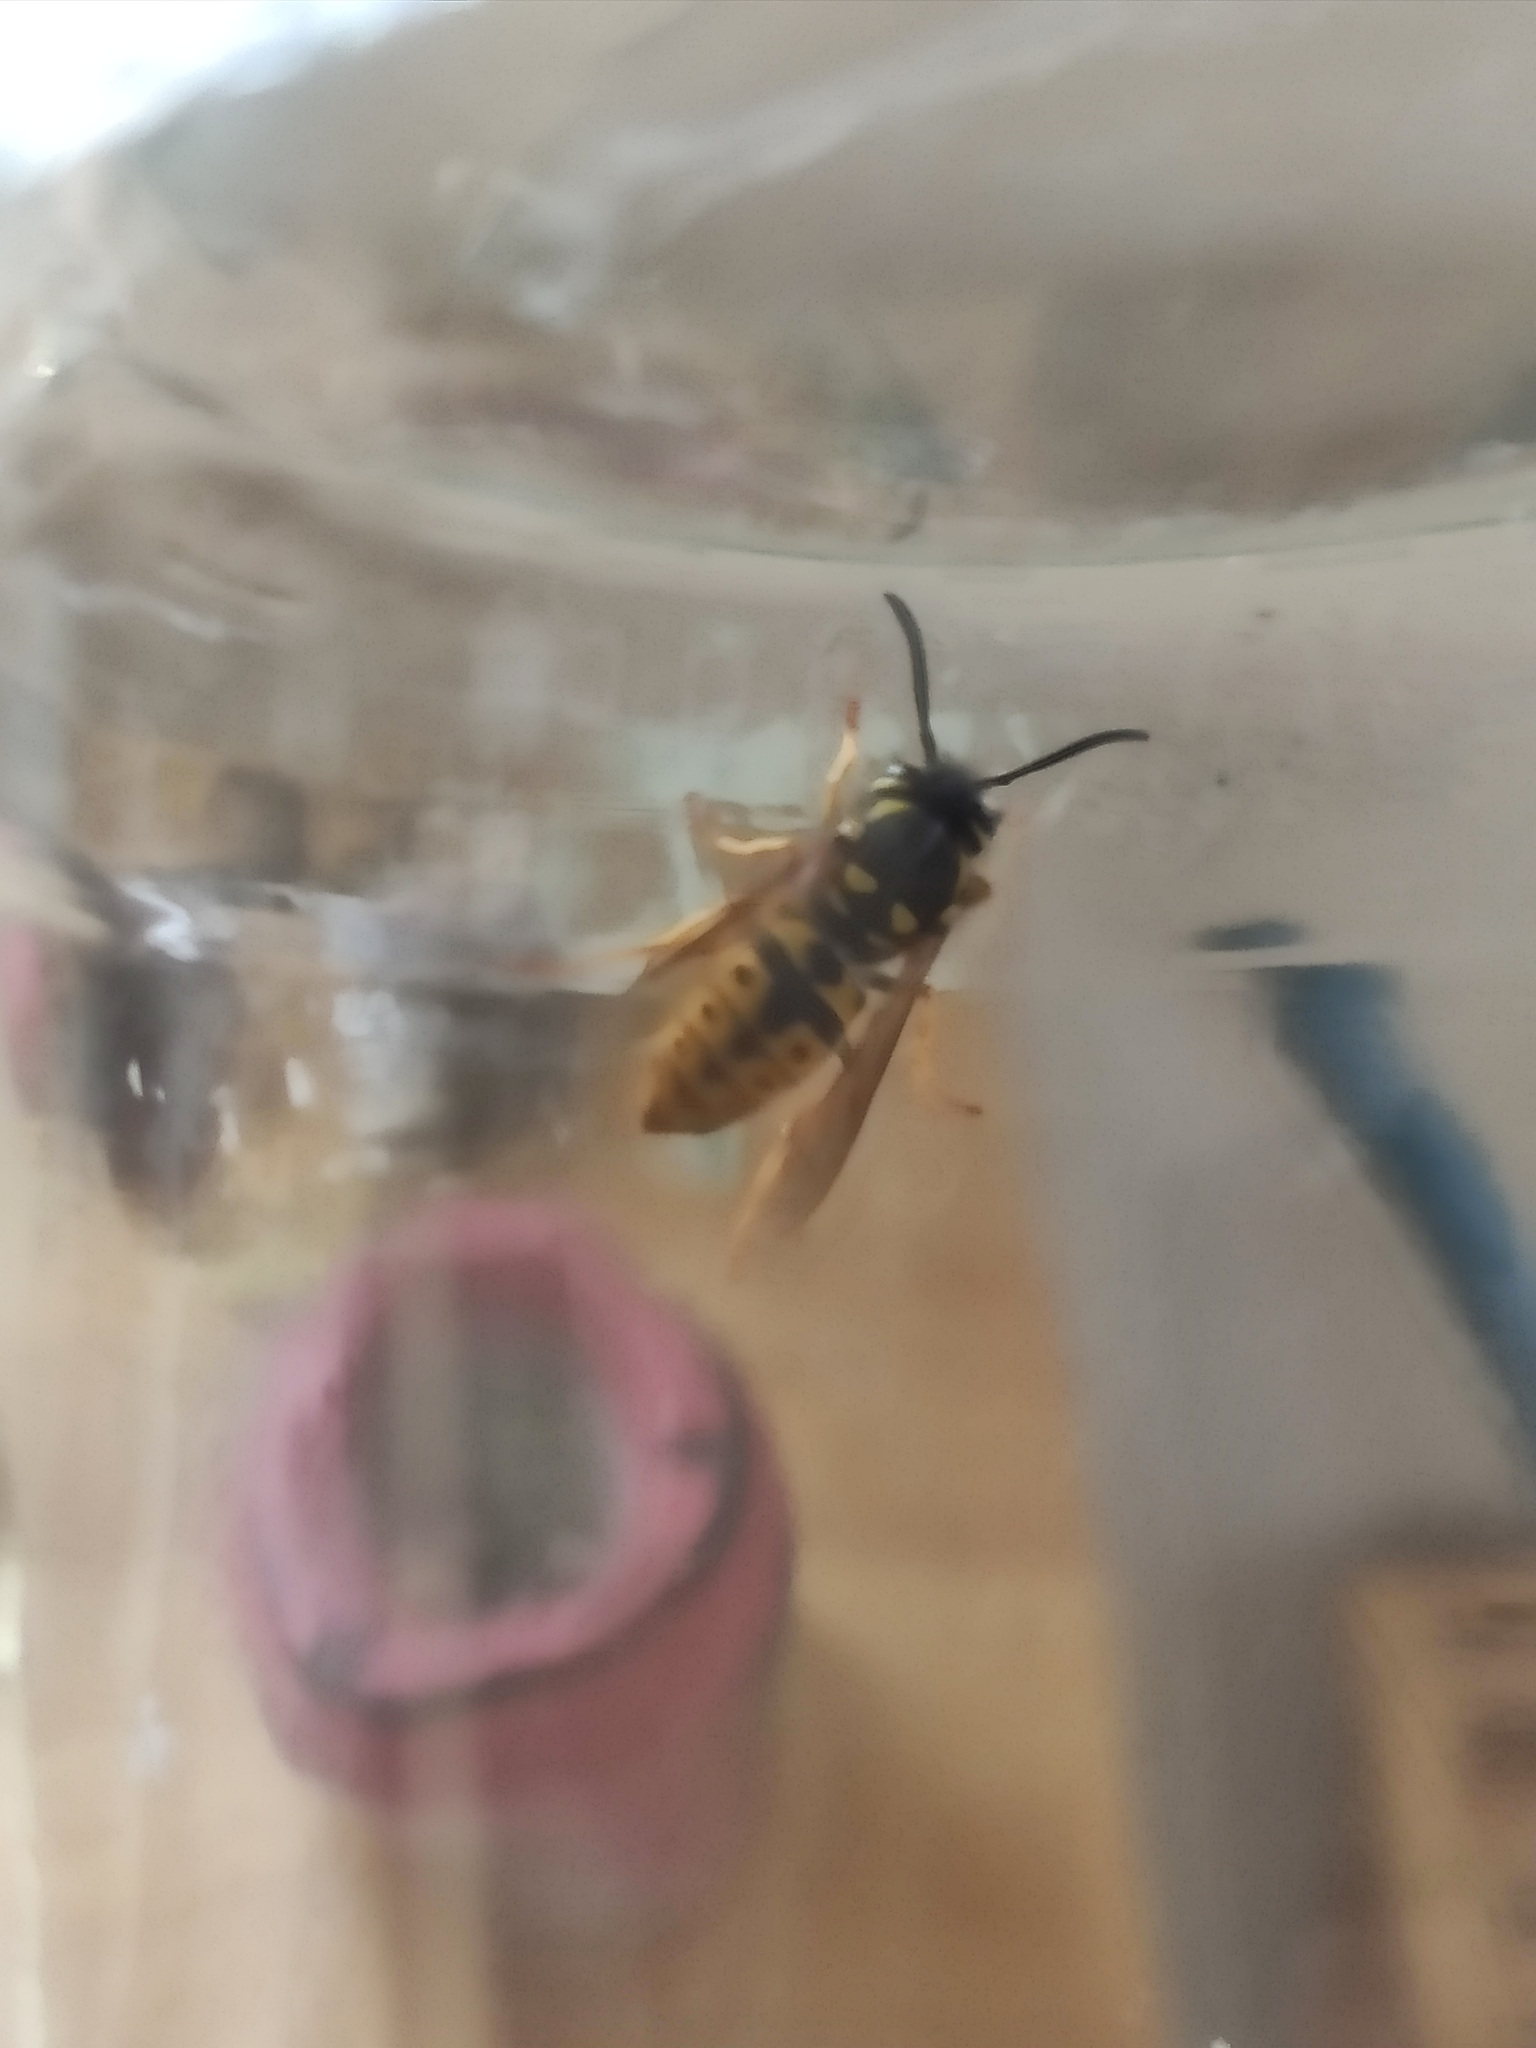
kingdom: Animalia
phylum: Arthropoda
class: Insecta
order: Hymenoptera
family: Vespidae
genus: Vespula
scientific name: Vespula germanica
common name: German wasp
